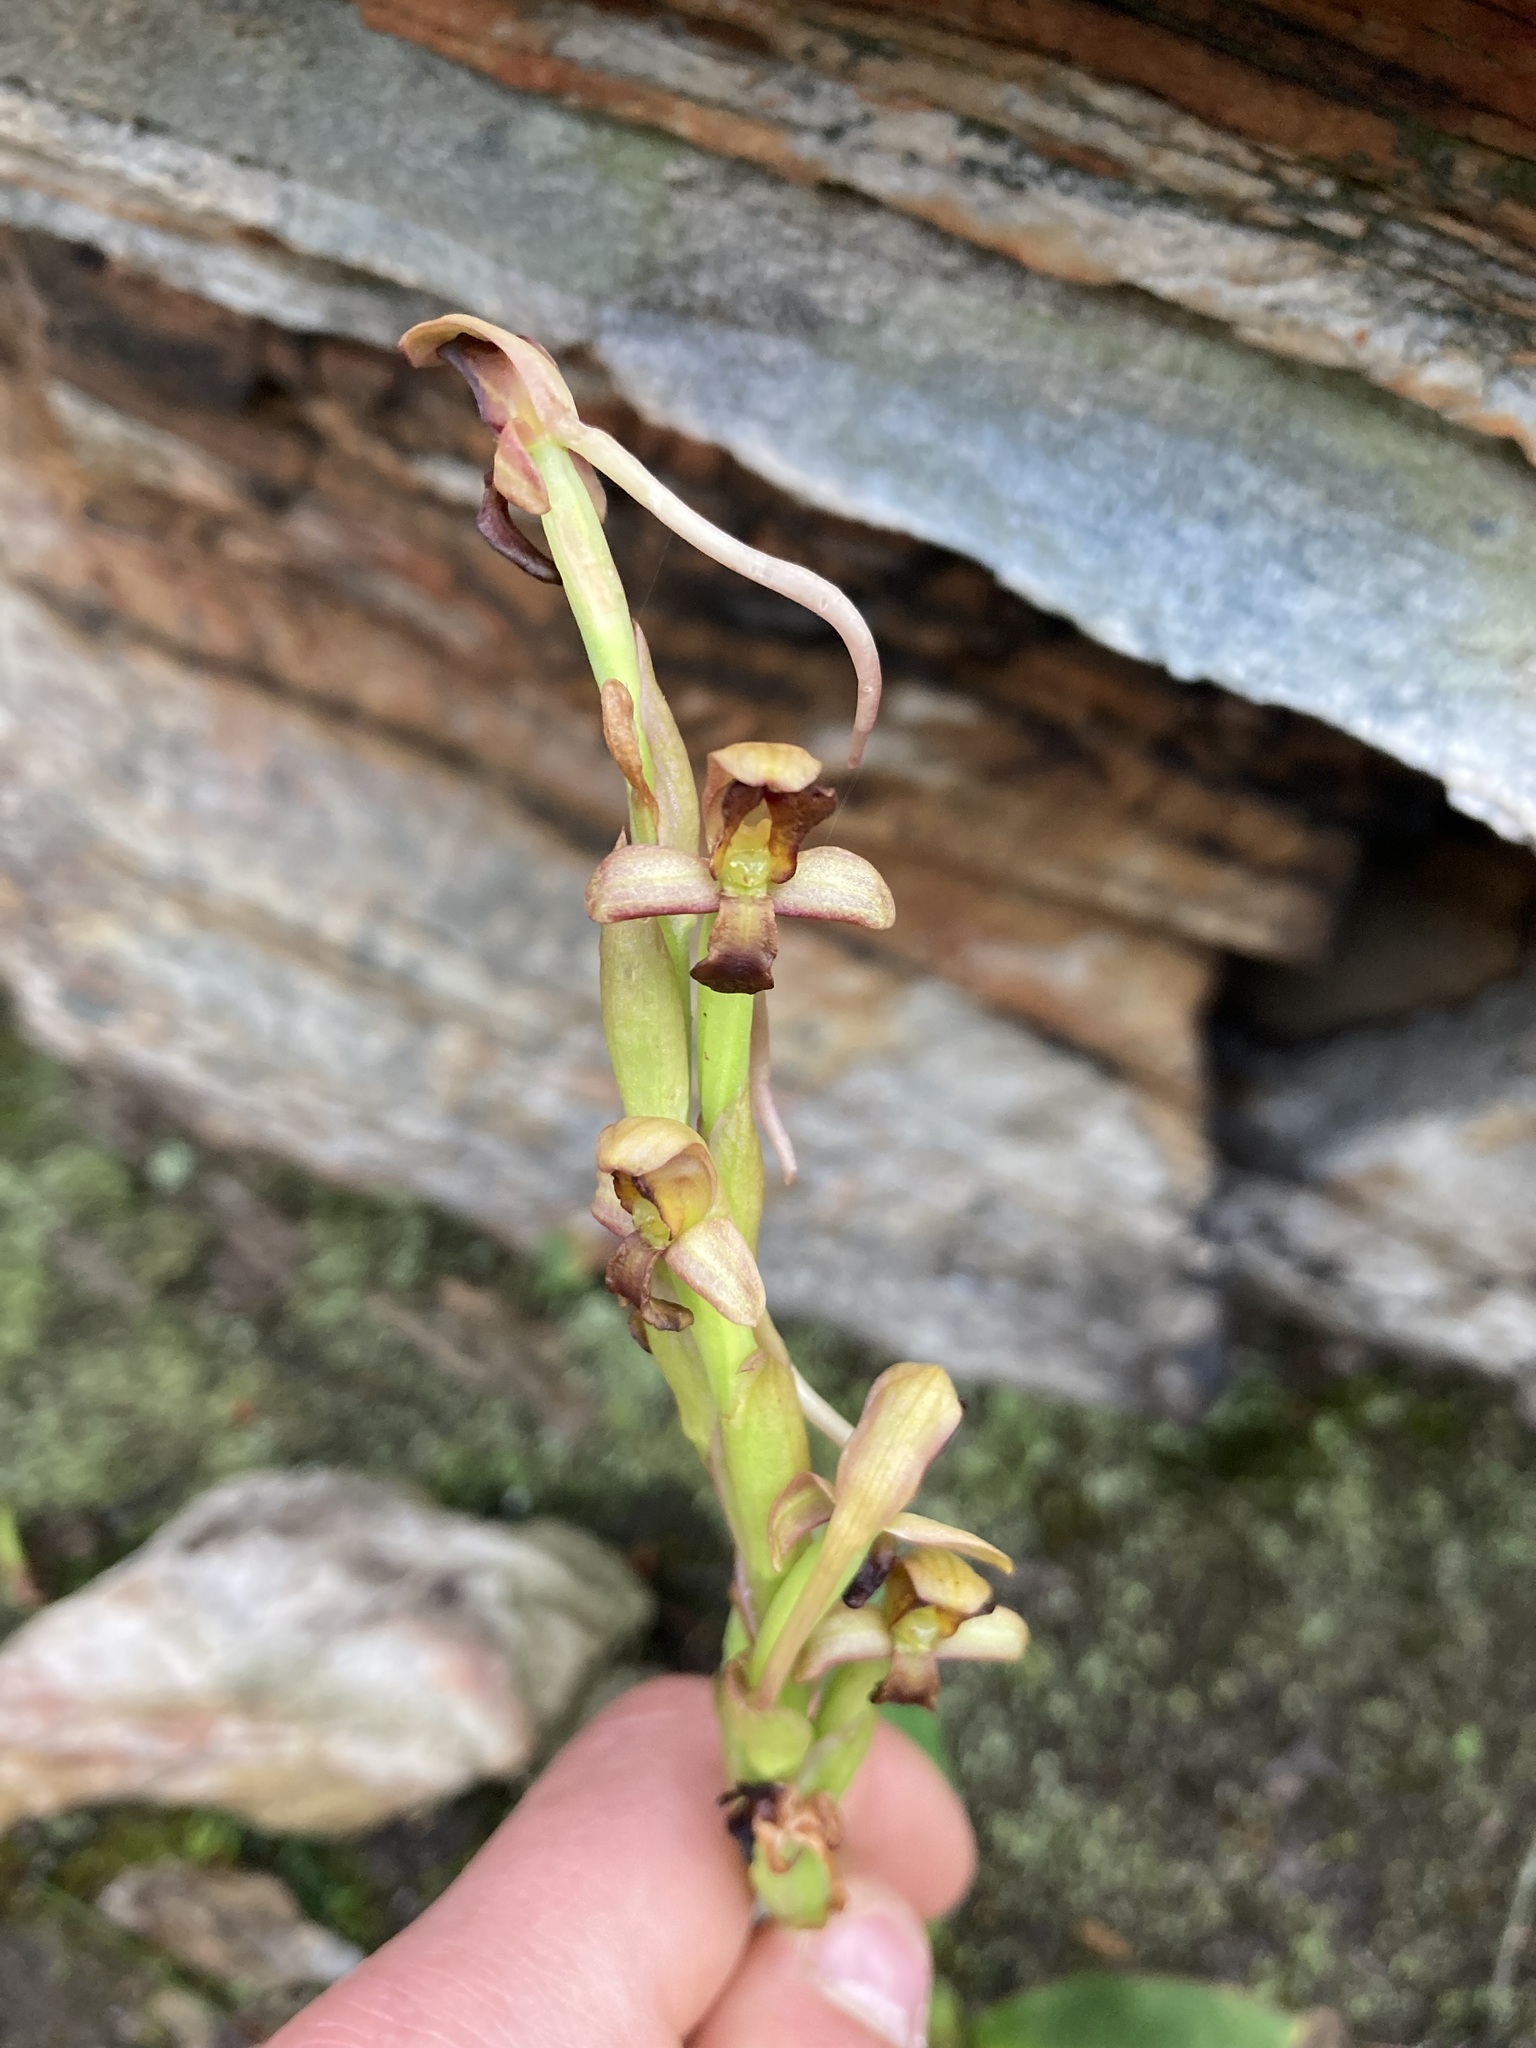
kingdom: Plantae
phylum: Tracheophyta
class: Liliopsida
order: Asparagales
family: Orchidaceae
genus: Disa
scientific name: Disa bolusiana
